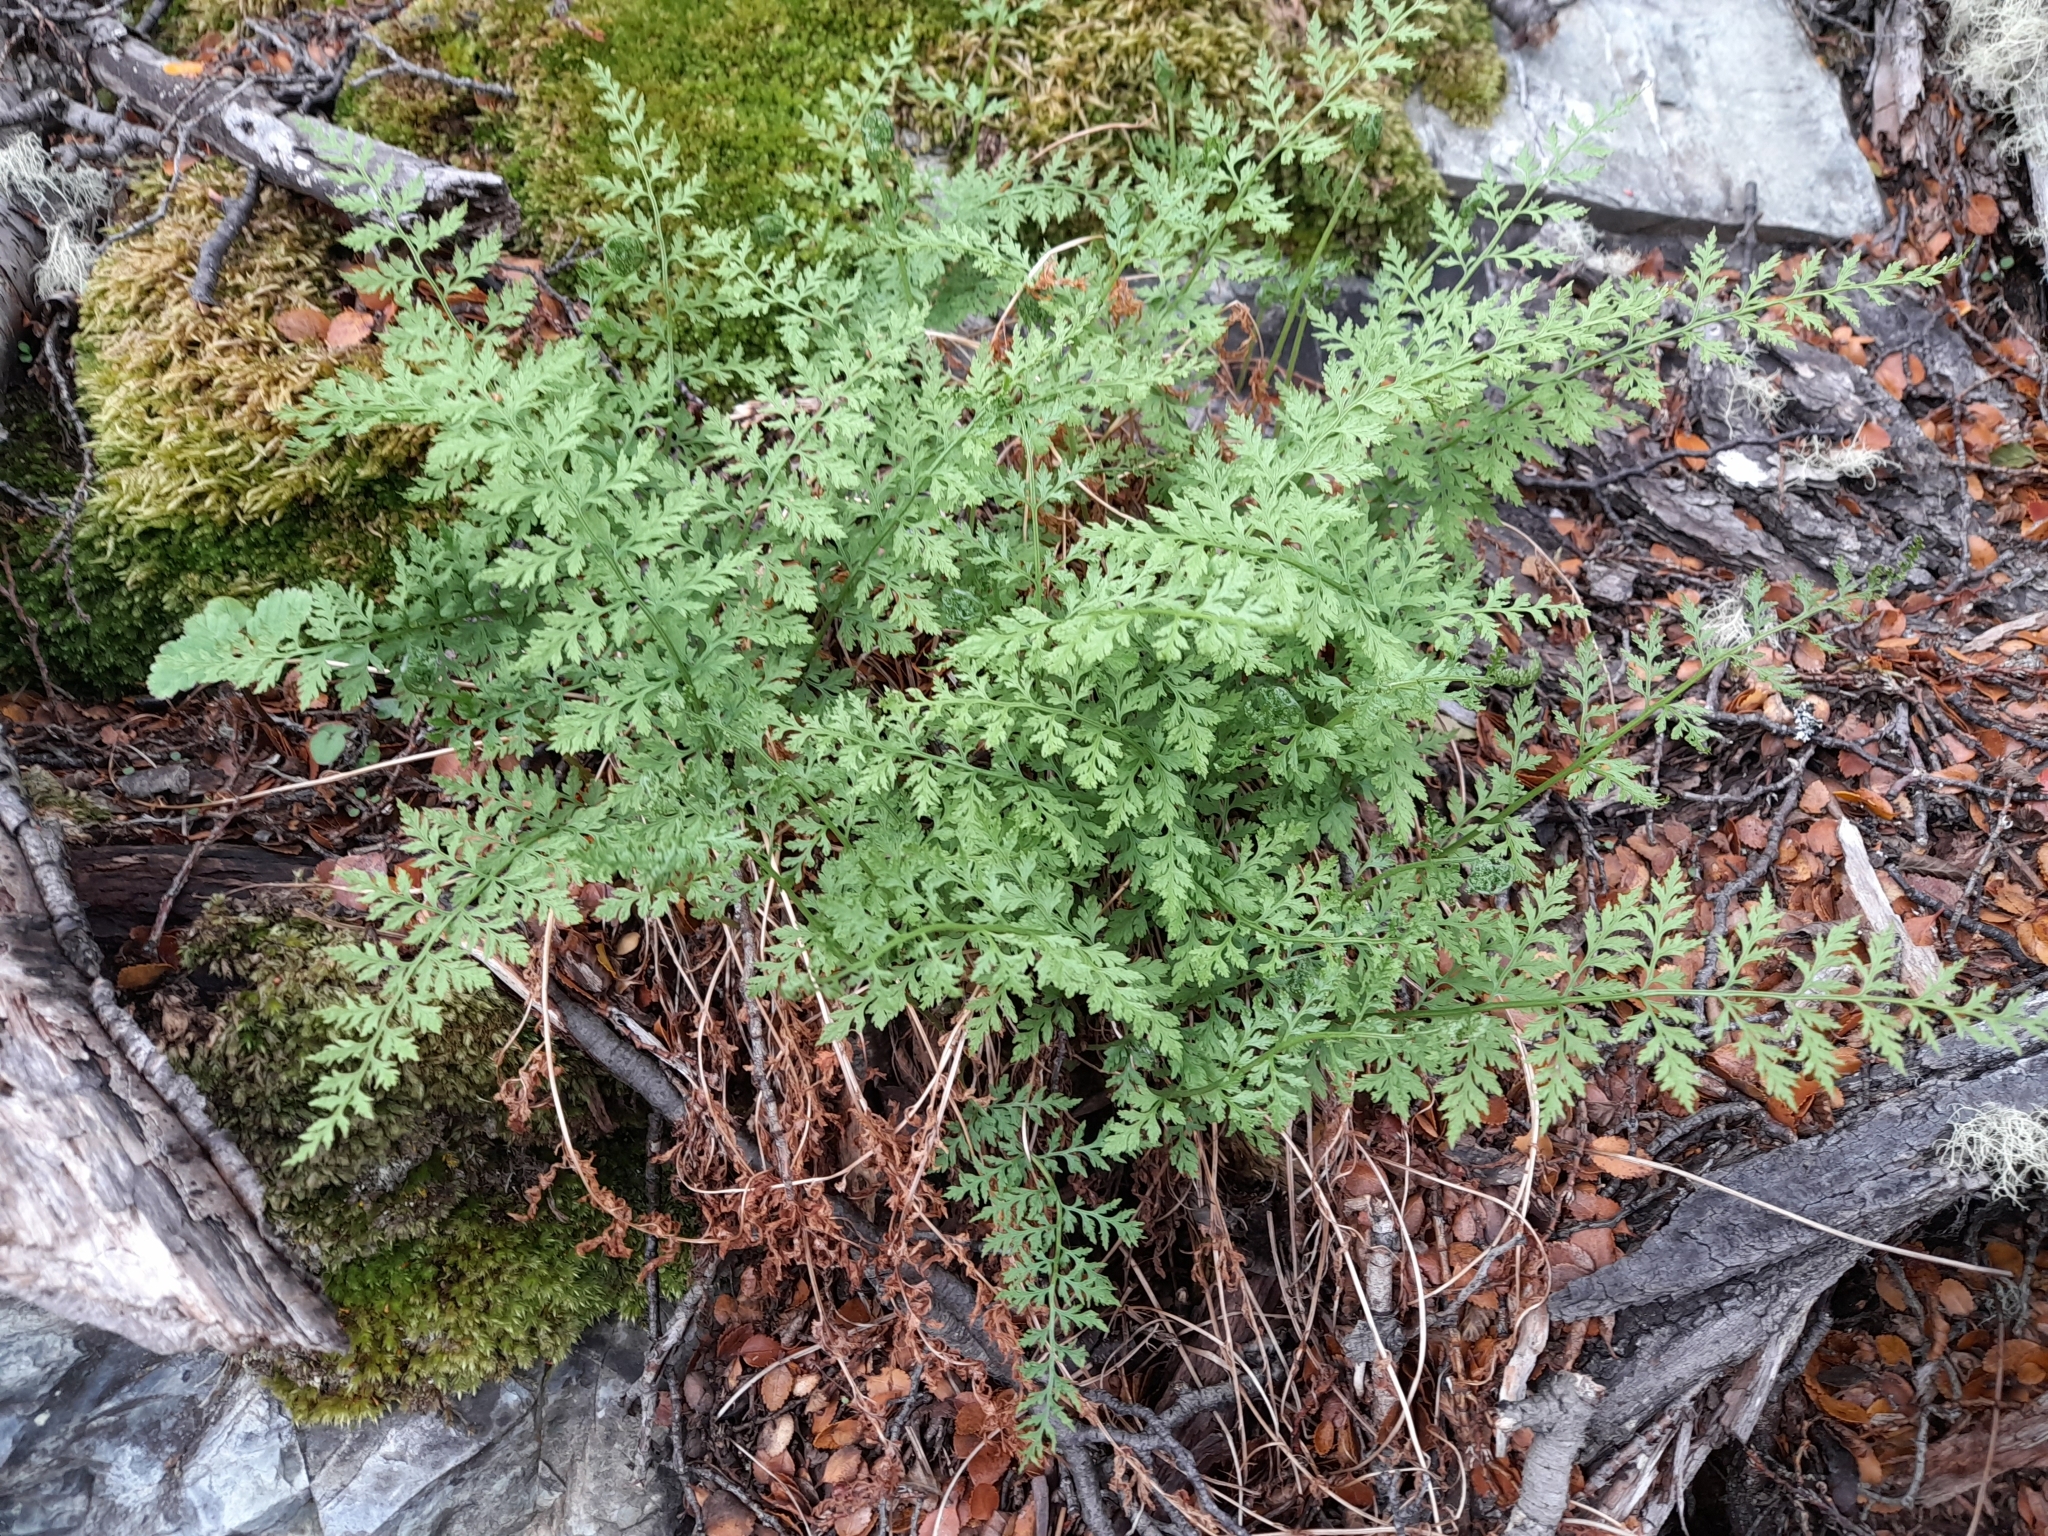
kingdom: Plantae
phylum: Tracheophyta
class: Polypodiopsida
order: Polypodiales
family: Cystopteridaceae
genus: Cystopteris
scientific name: Cystopteris fragilis
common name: Brittle bladder fern
